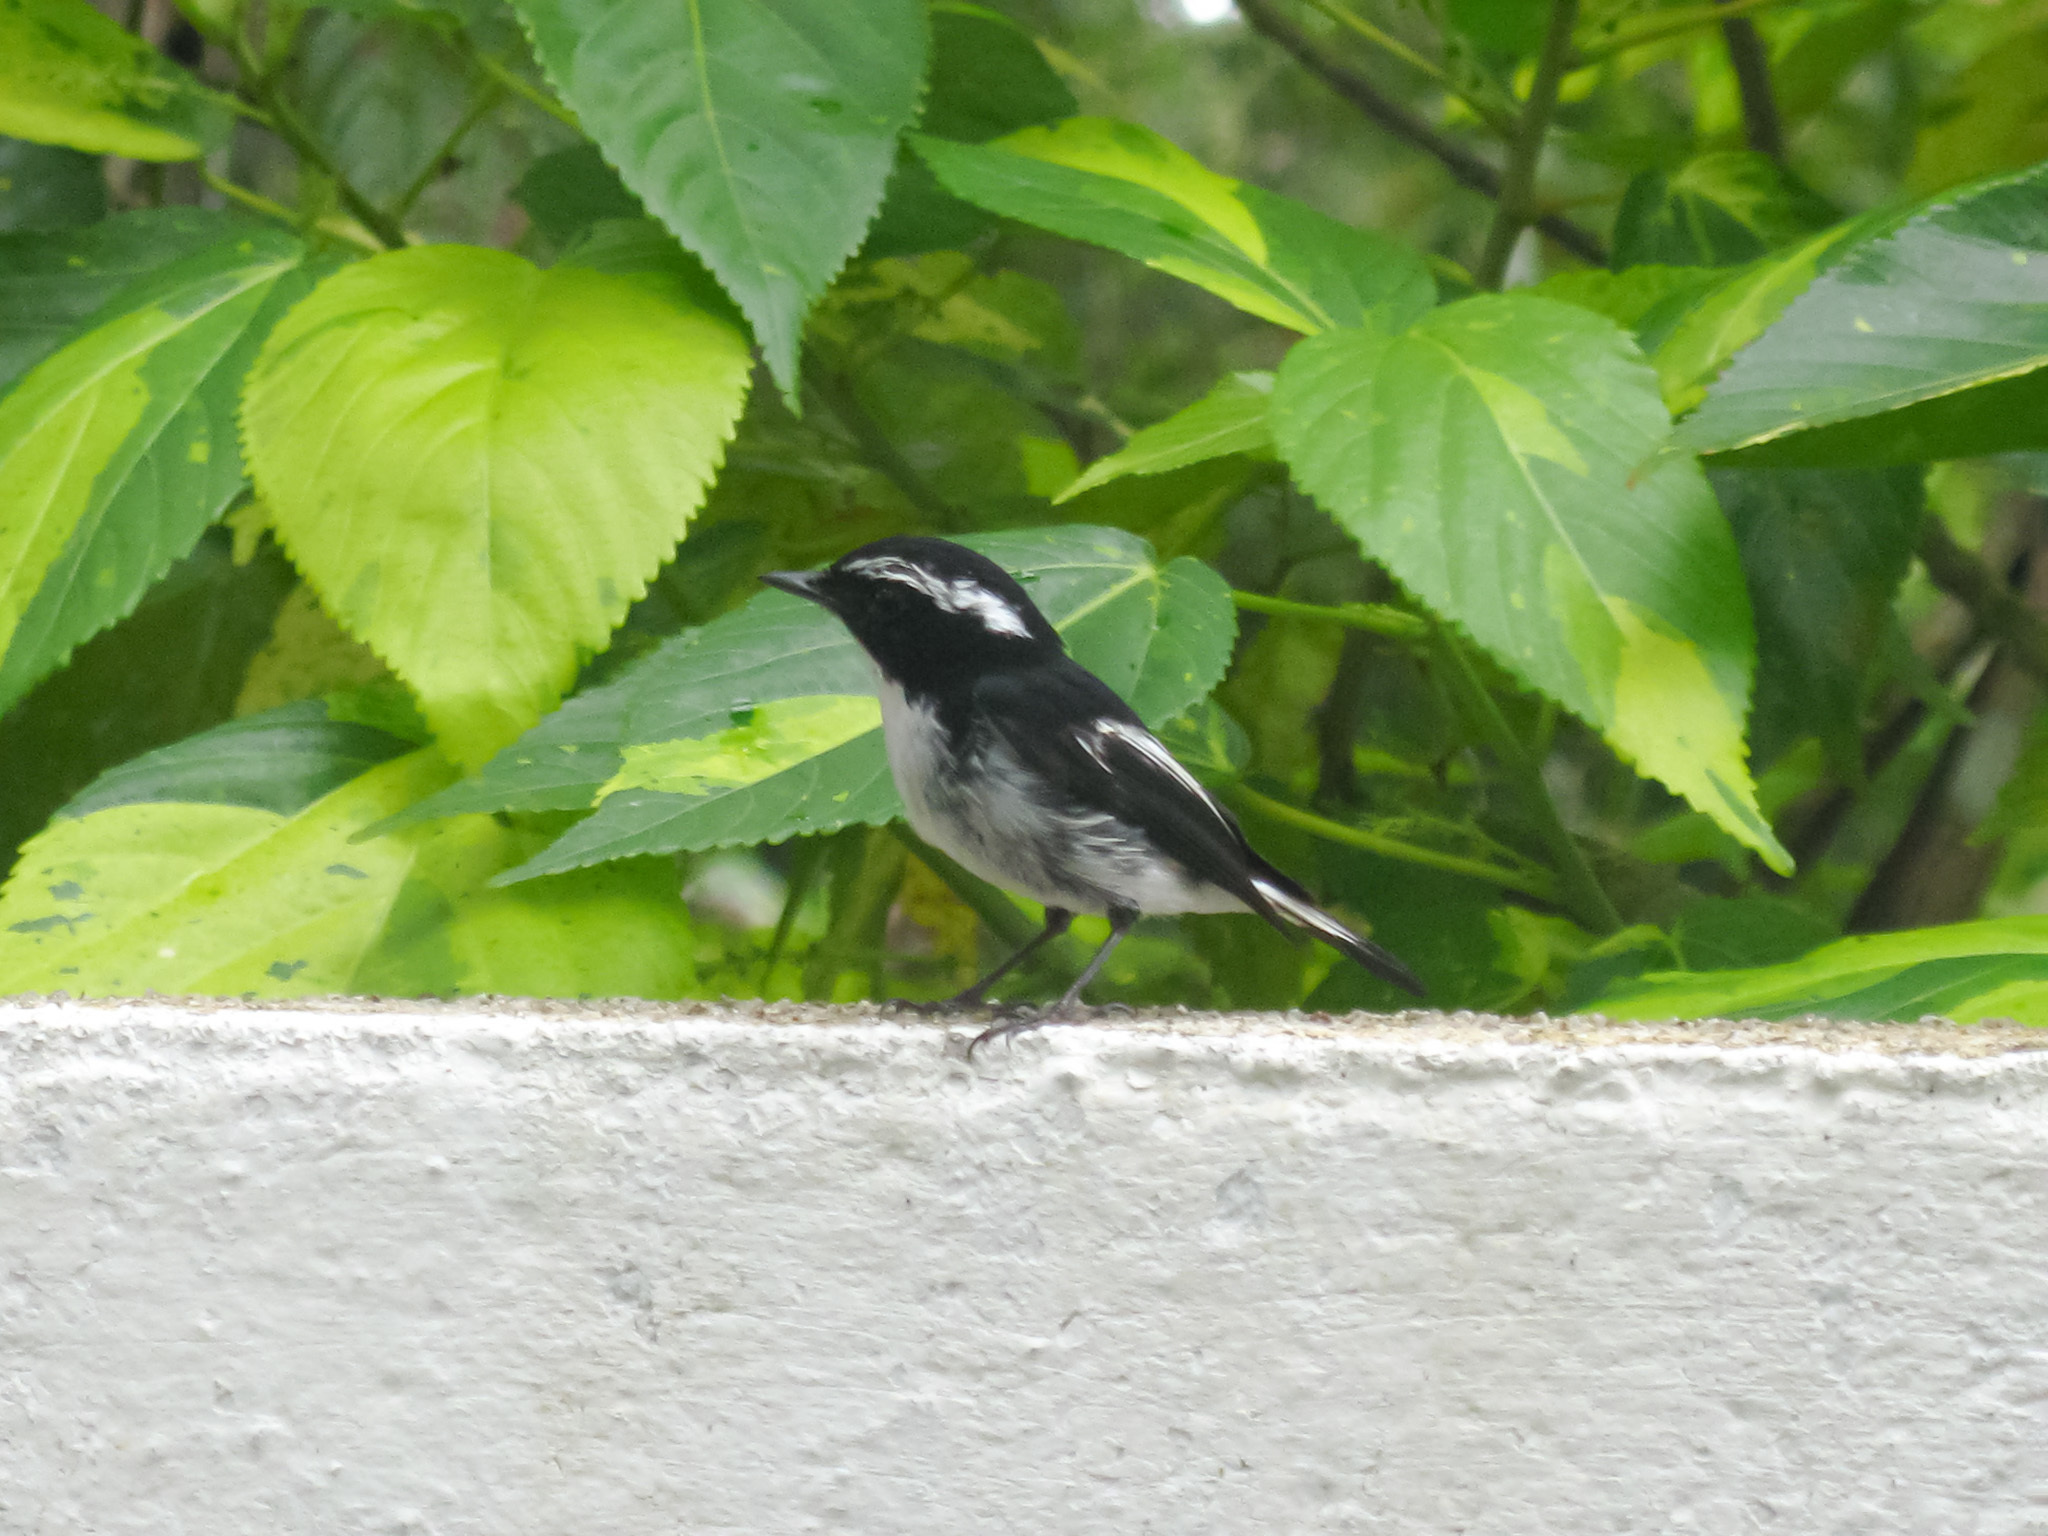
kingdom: Animalia
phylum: Chordata
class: Aves
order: Passeriformes
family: Muscicapidae
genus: Ficedula
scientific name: Ficedula westermanni
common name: Little pied flycatcher
